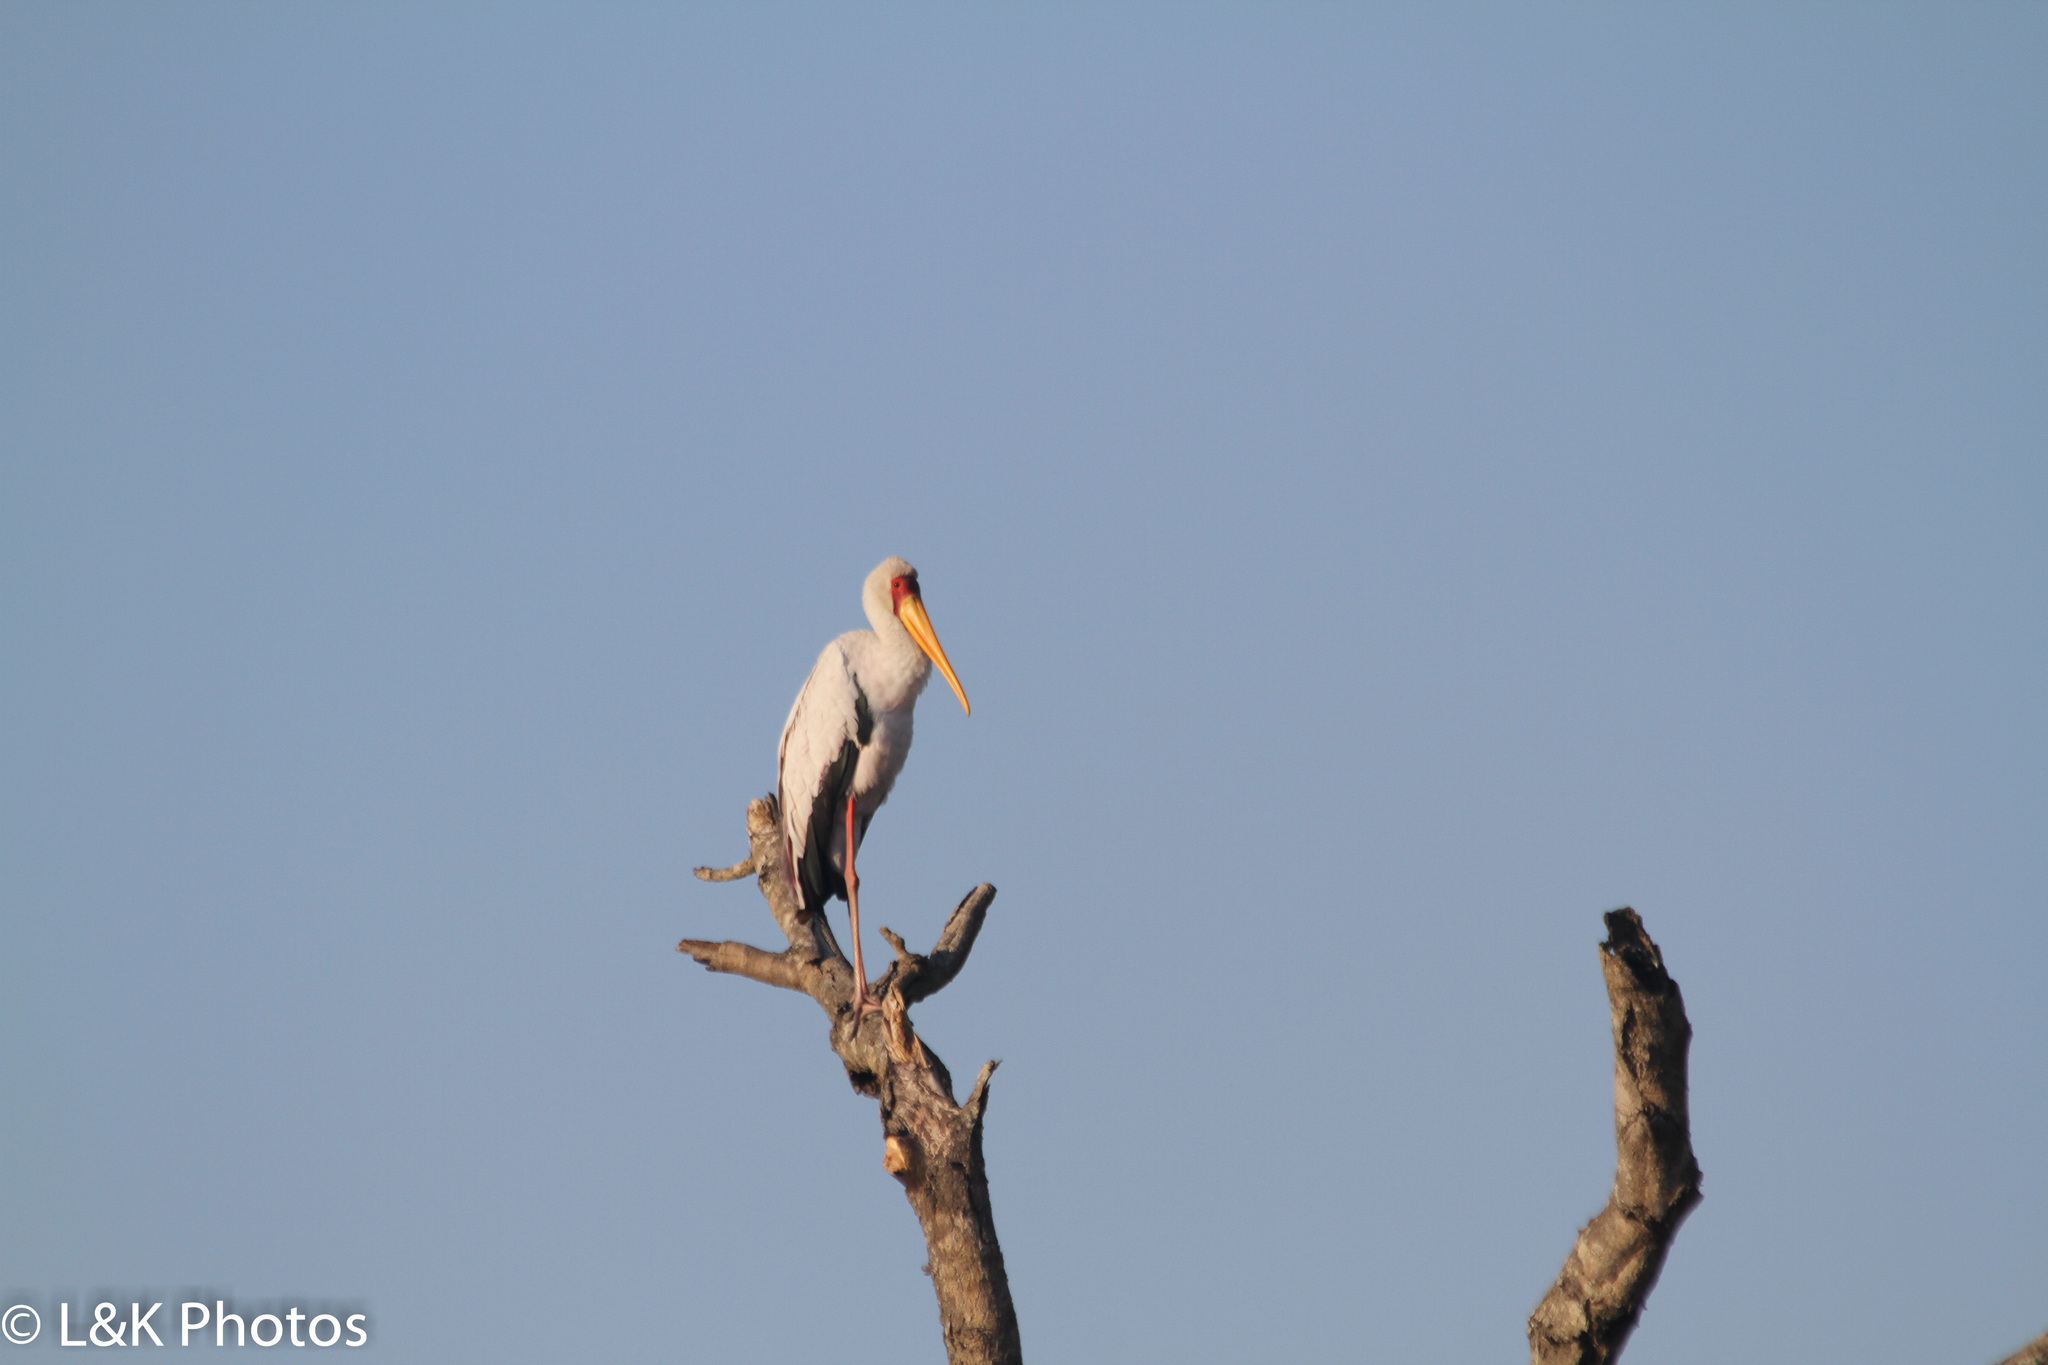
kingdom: Animalia
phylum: Chordata
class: Aves
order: Ciconiiformes
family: Ciconiidae
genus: Mycteria
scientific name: Mycteria ibis
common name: Yellow-billed stork
